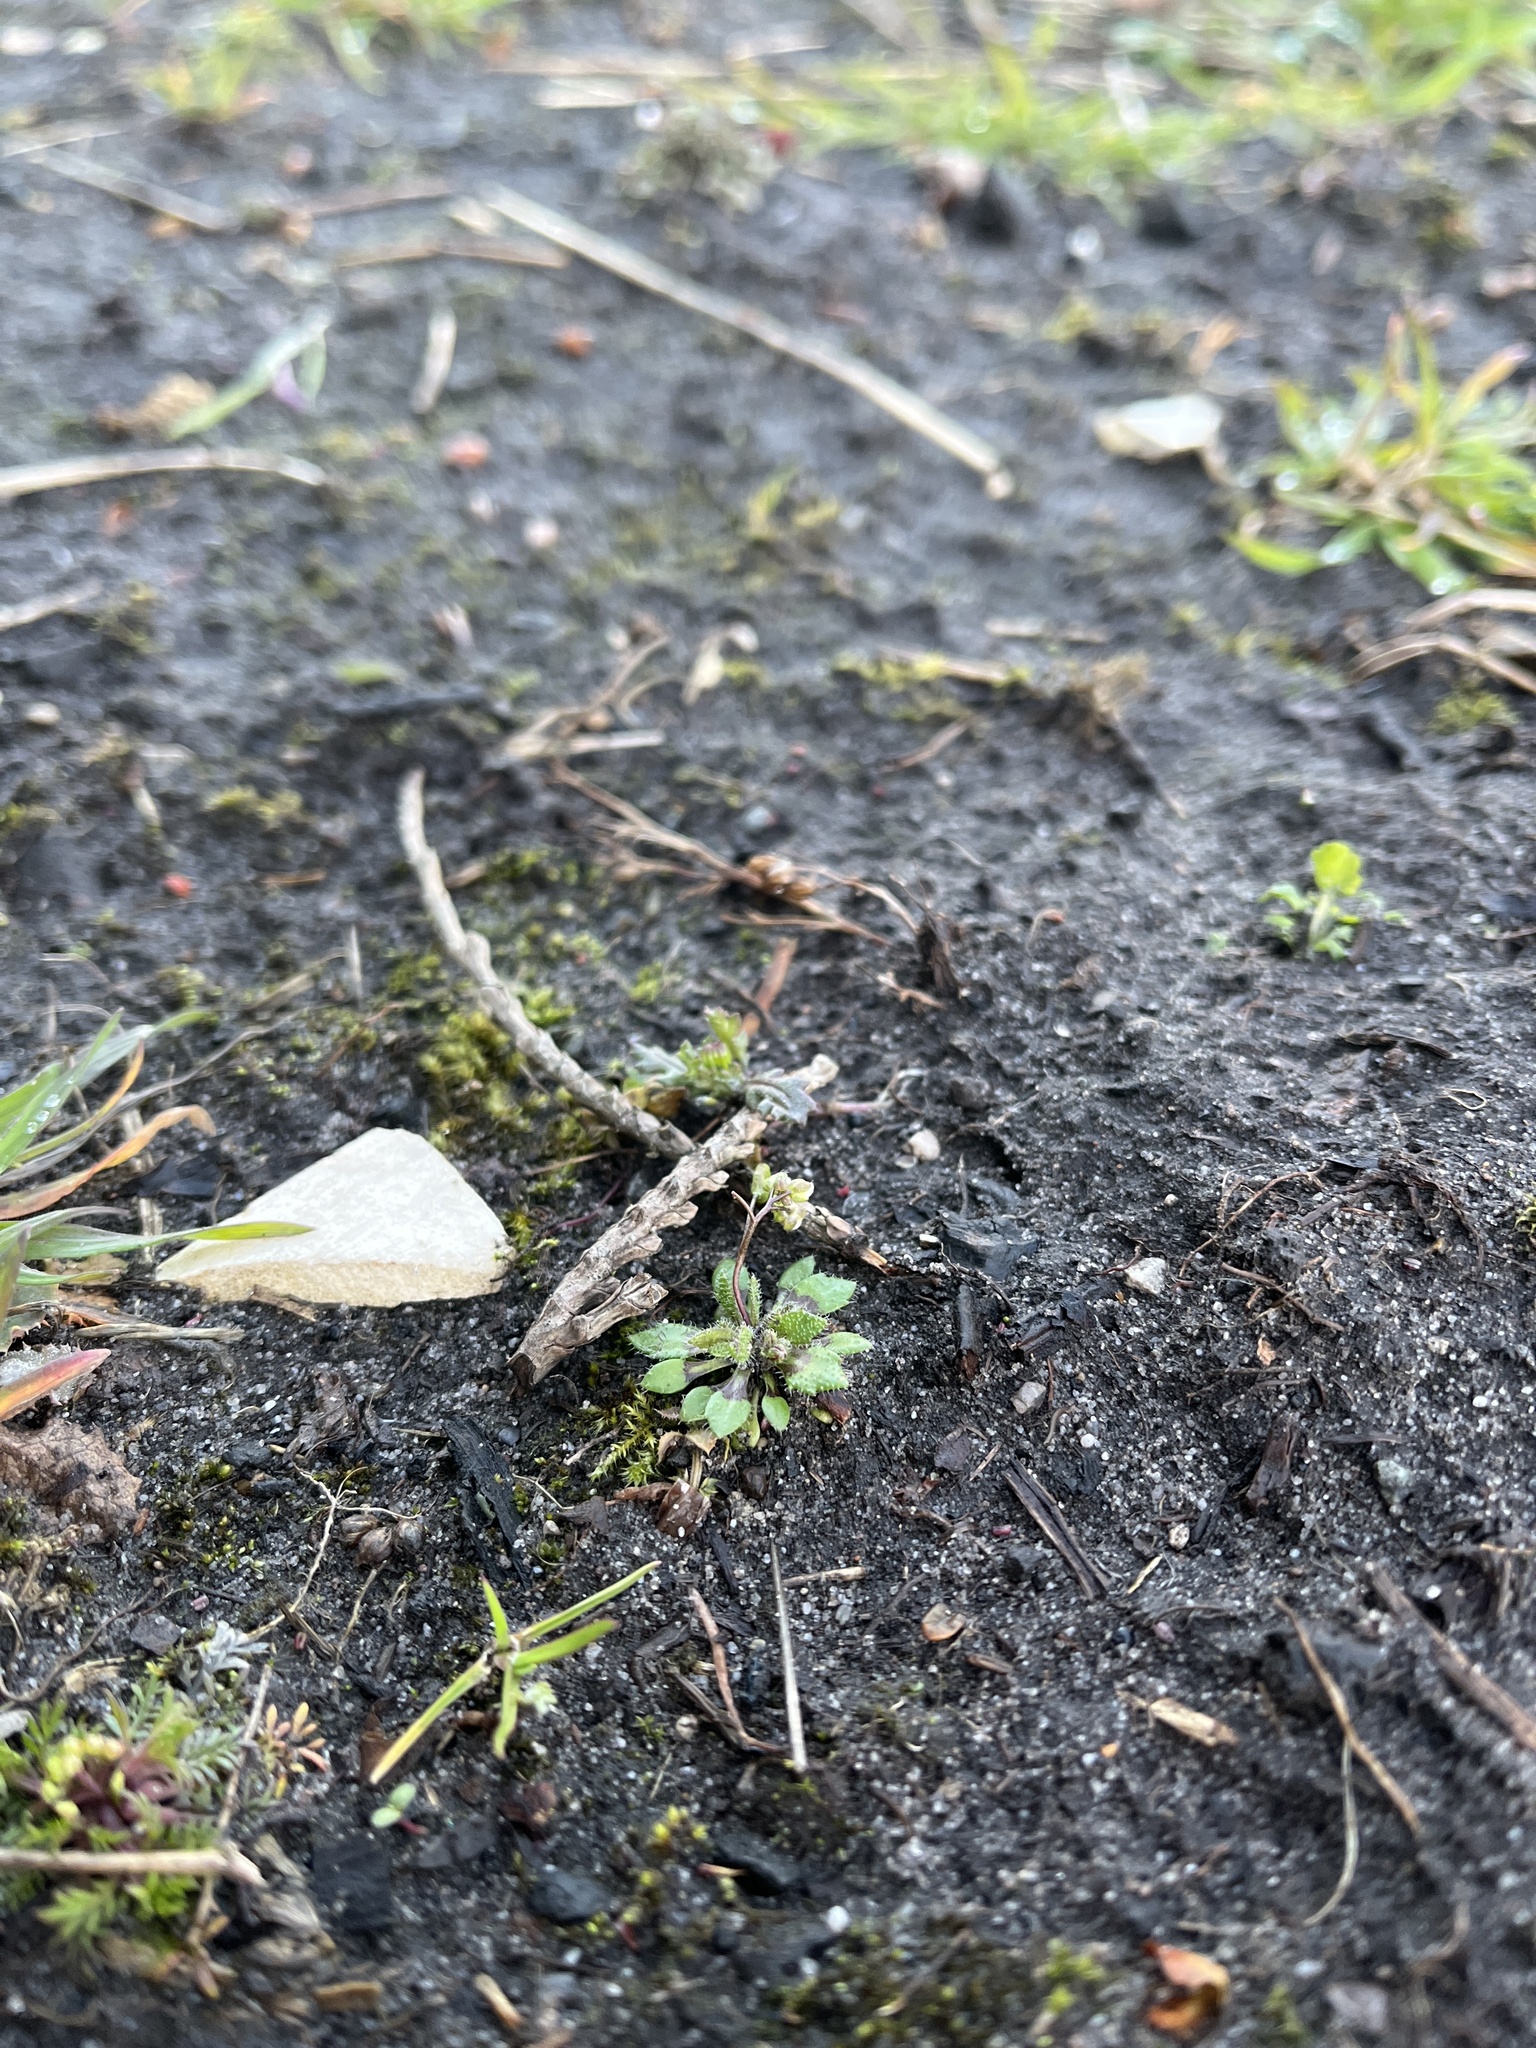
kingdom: Plantae
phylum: Tracheophyta
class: Magnoliopsida
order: Brassicales
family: Brassicaceae
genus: Draba
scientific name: Draba verna
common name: Spring draba
